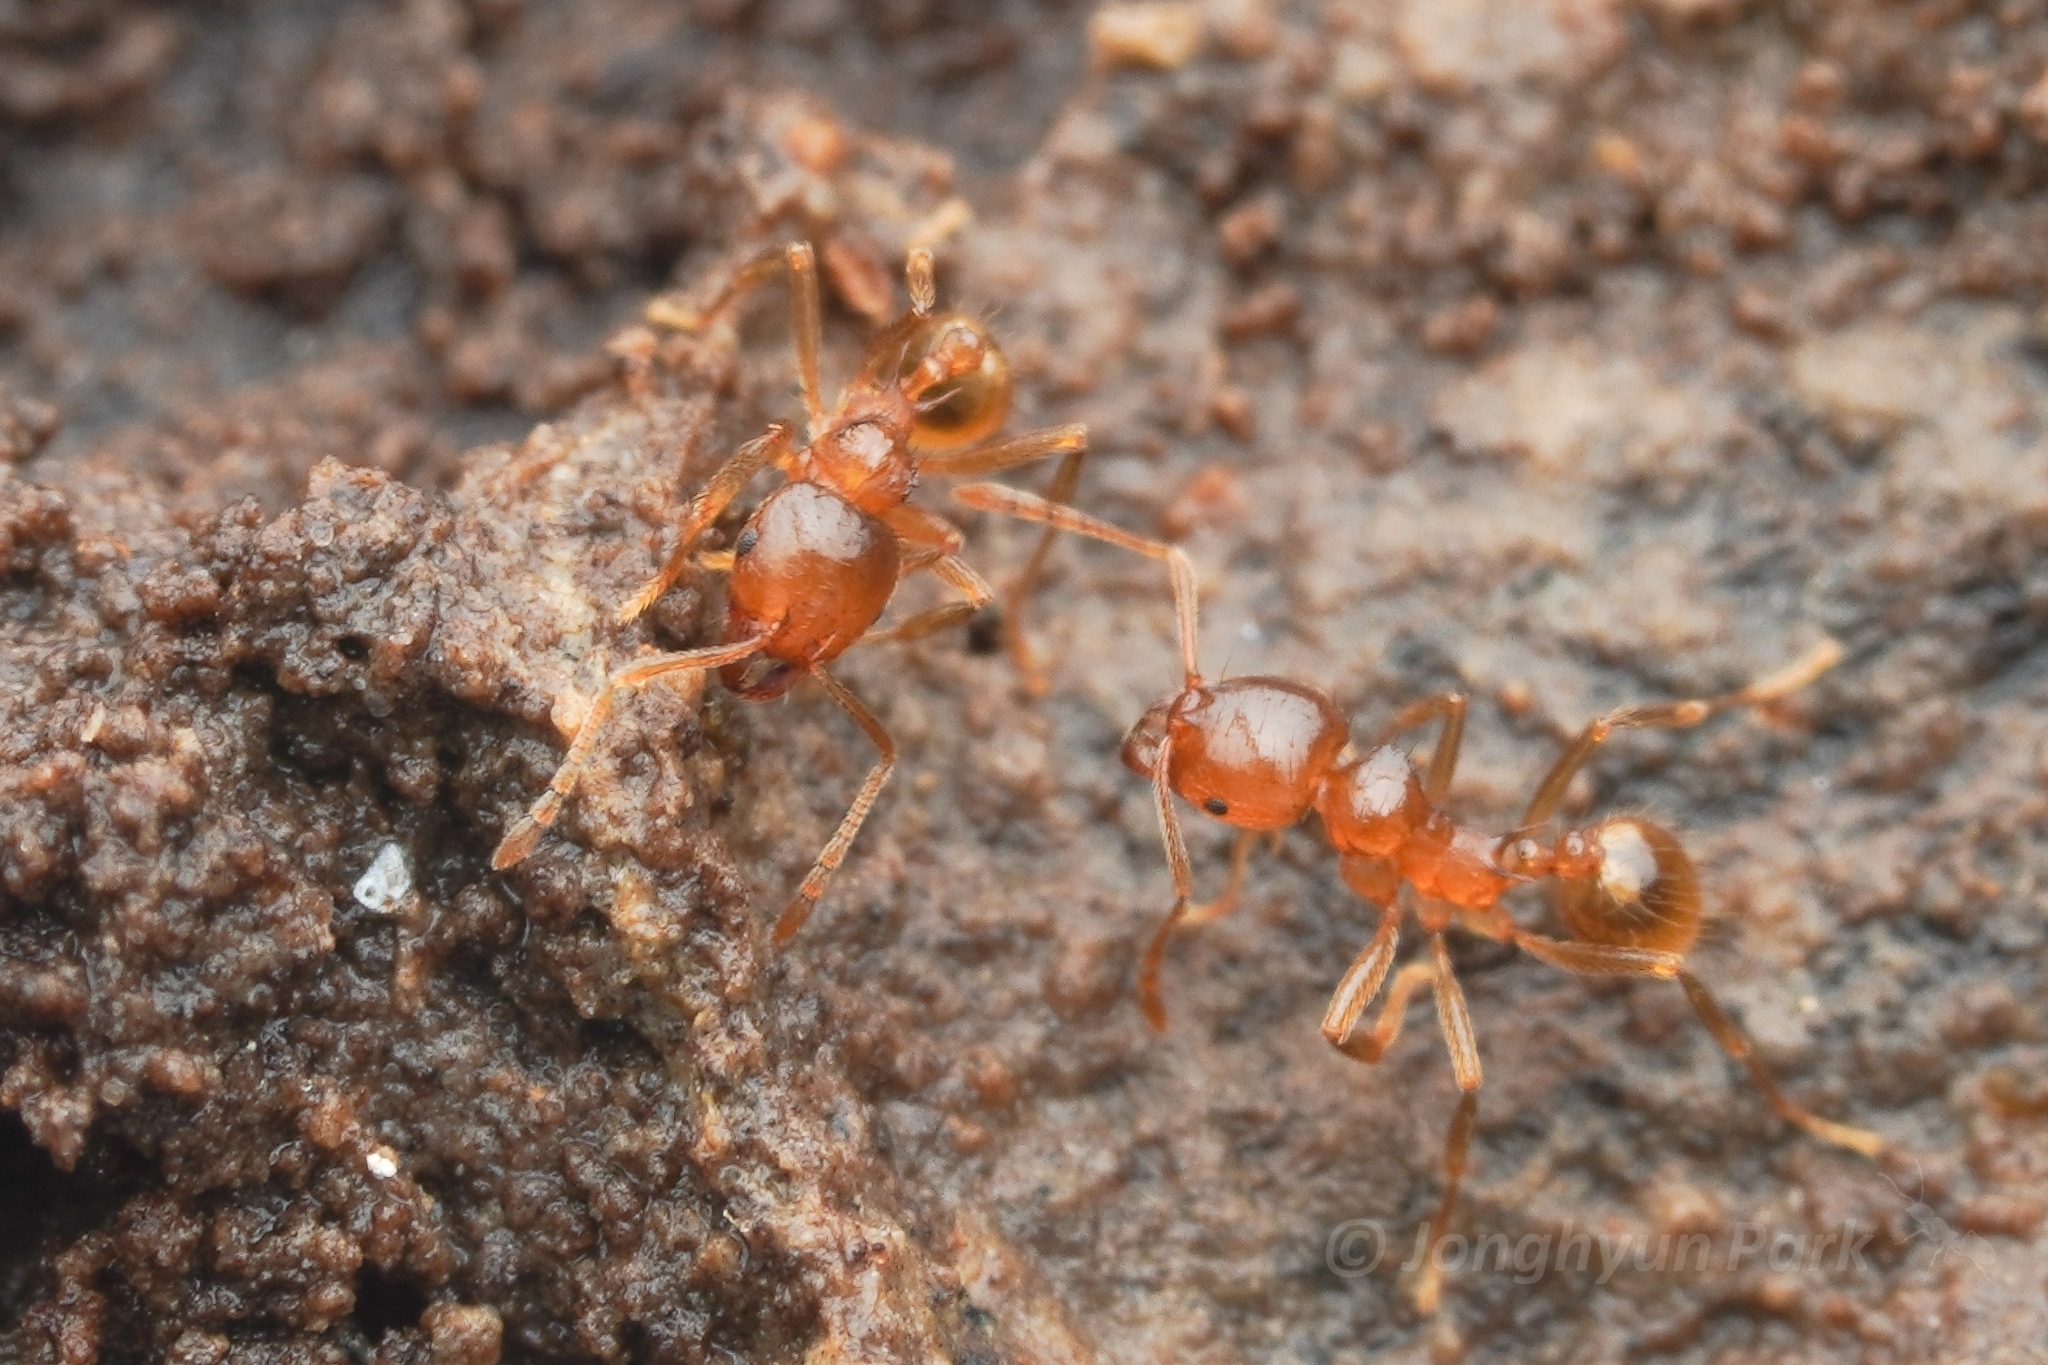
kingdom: Animalia
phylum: Arthropoda
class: Insecta
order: Hymenoptera
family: Formicidae
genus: Lophomyrmex
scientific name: Lophomyrmex longicornis
